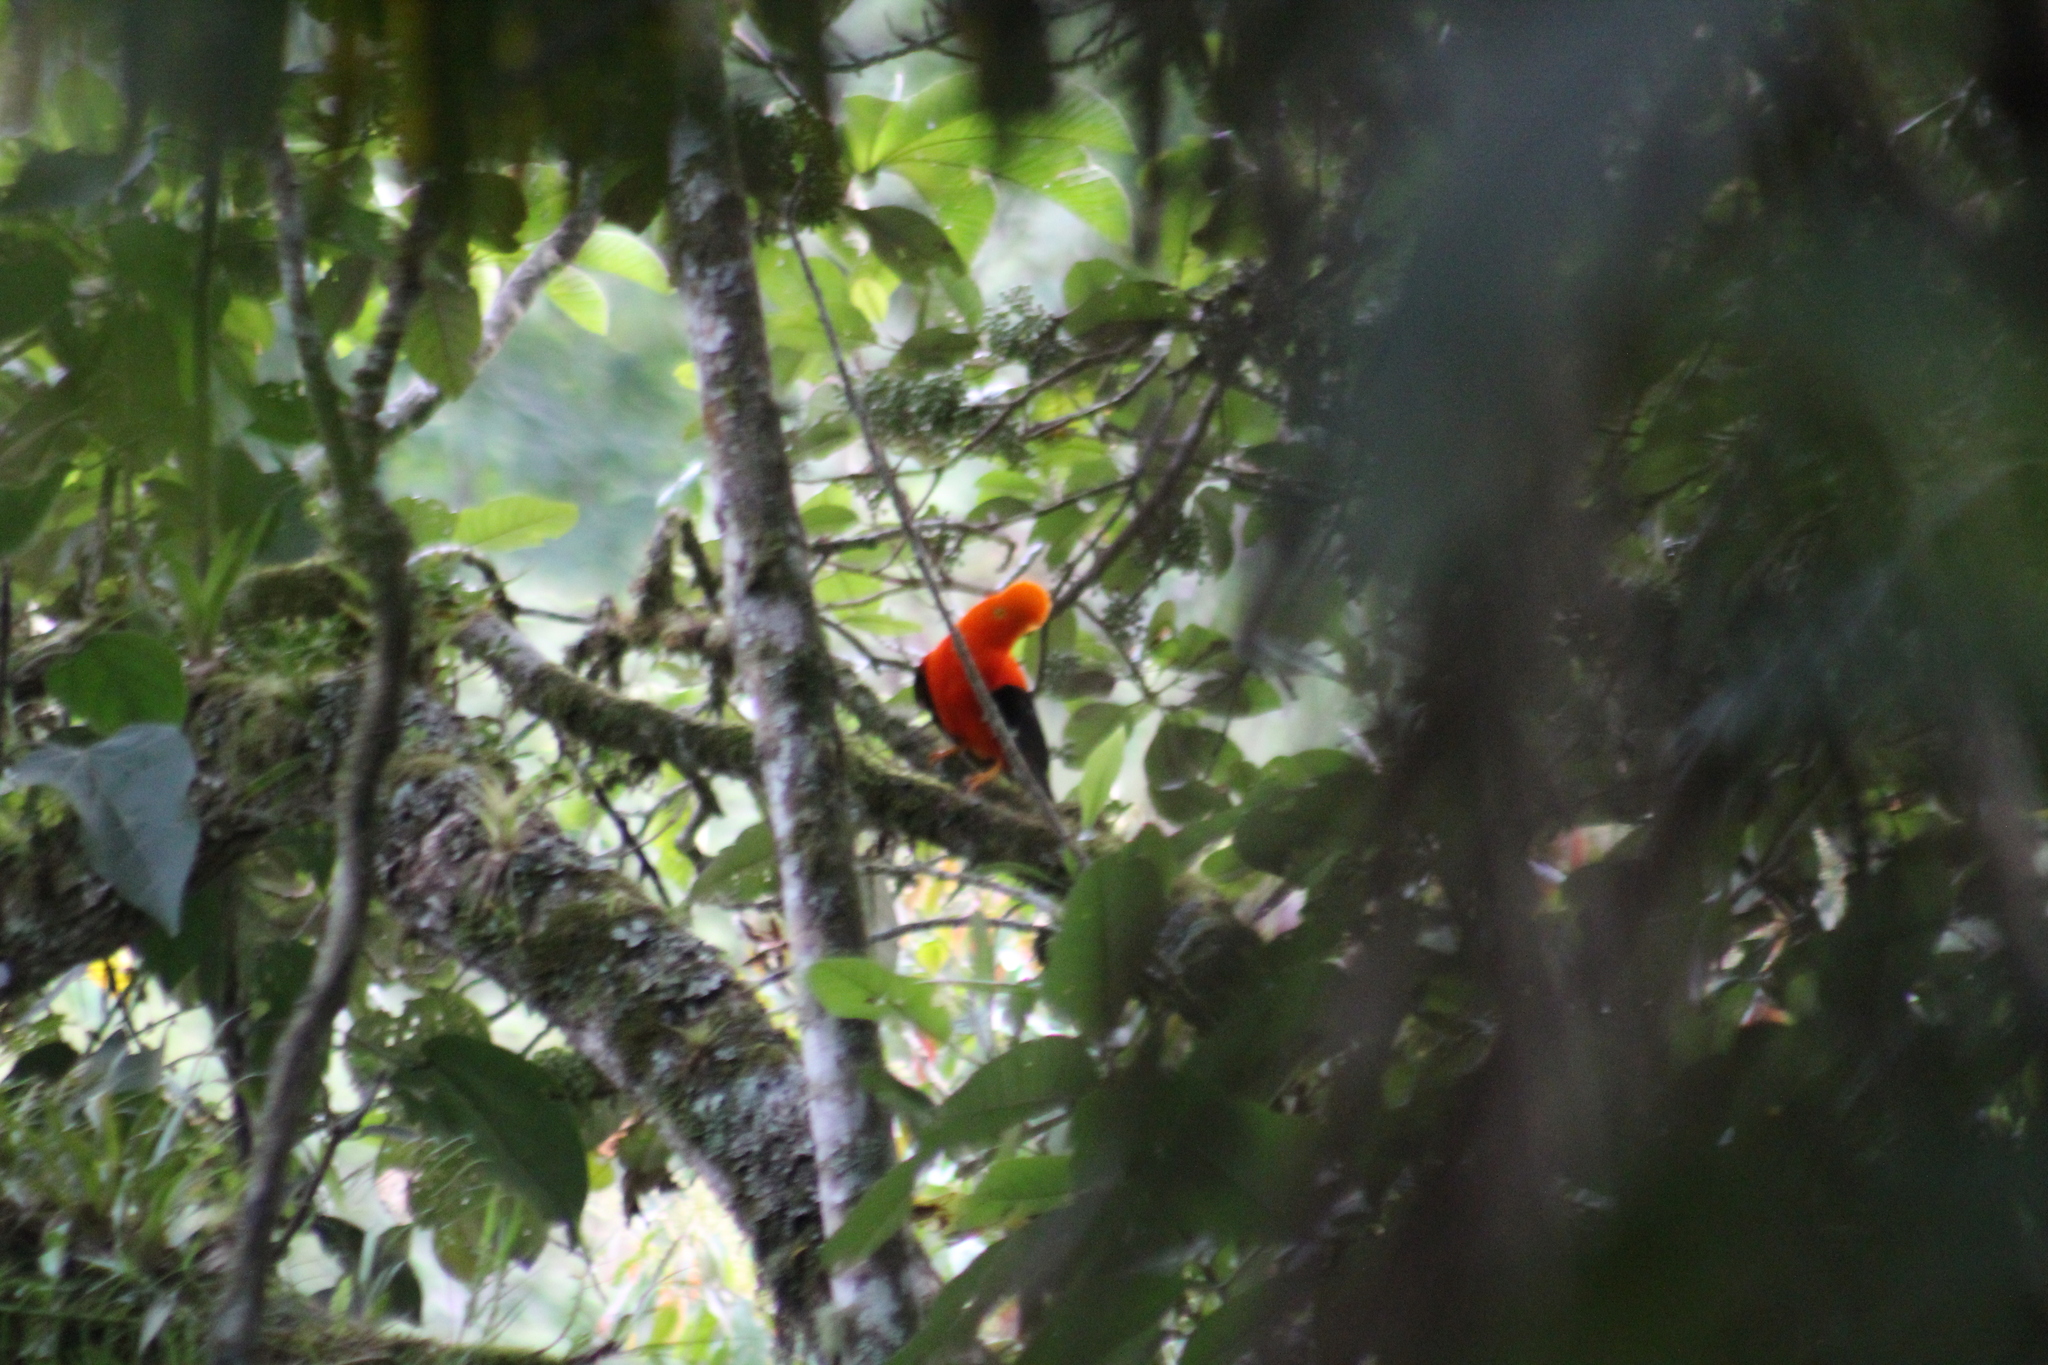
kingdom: Animalia
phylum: Chordata
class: Aves
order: Passeriformes
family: Cotingidae
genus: Rupicola
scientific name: Rupicola peruvianus
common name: Andean cock-of-the-rock
